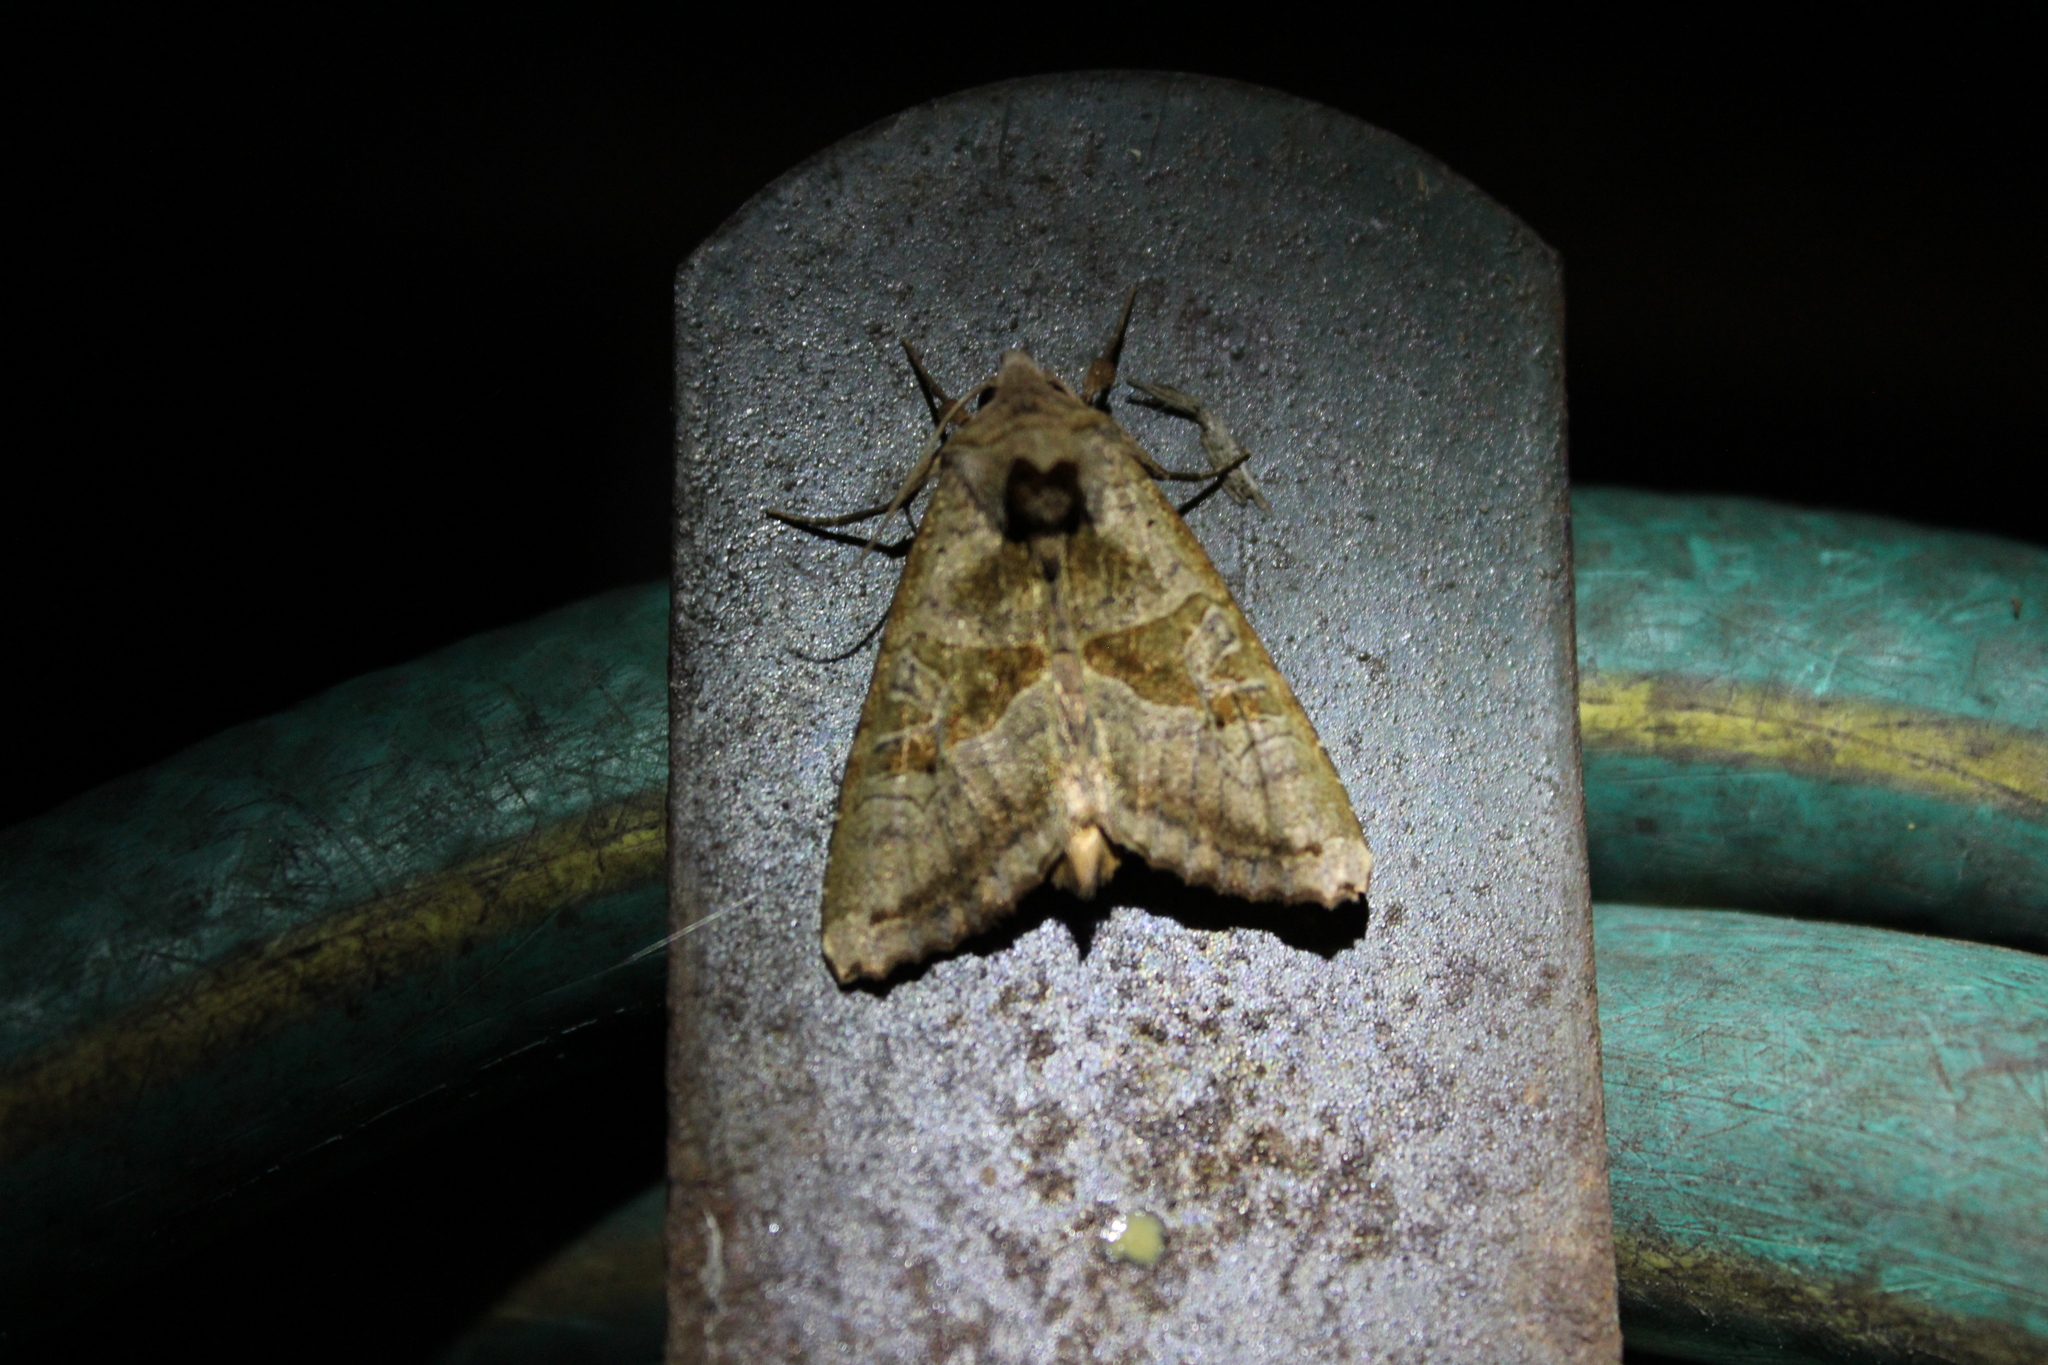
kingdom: Animalia
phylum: Arthropoda
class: Insecta
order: Lepidoptera
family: Noctuidae
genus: Phlogophora
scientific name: Phlogophora periculosa
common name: Brown angle shades
